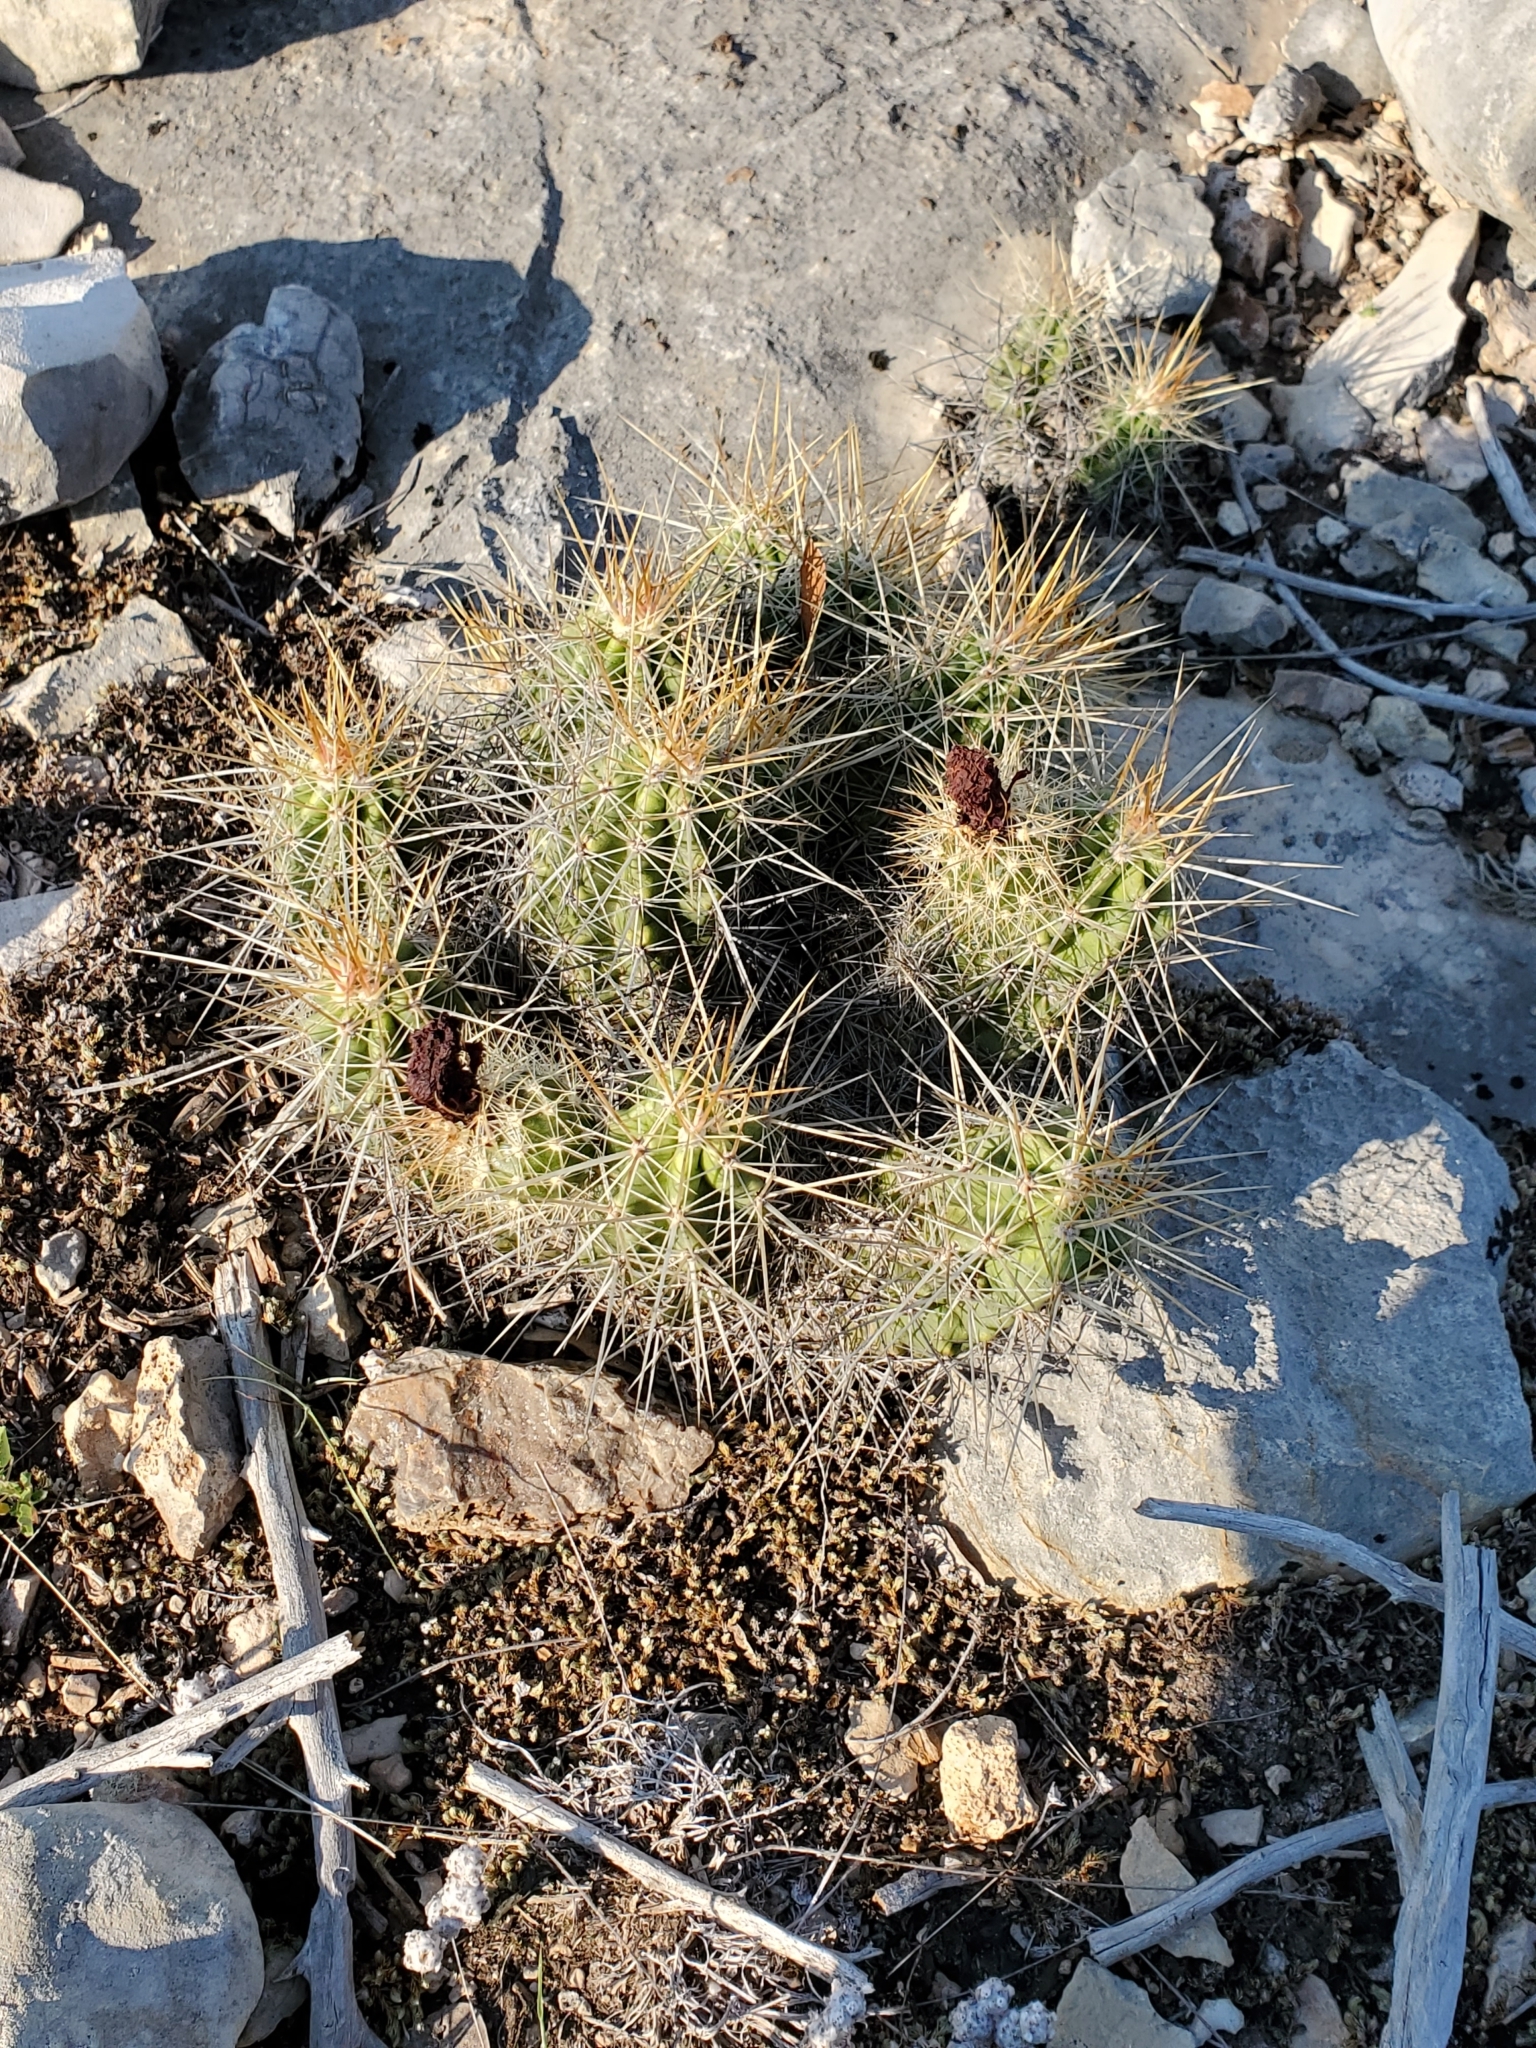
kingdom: Plantae
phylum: Tracheophyta
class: Magnoliopsida
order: Caryophyllales
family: Cactaceae
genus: Echinocereus
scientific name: Echinocereus enneacanthus
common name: Pitaya
